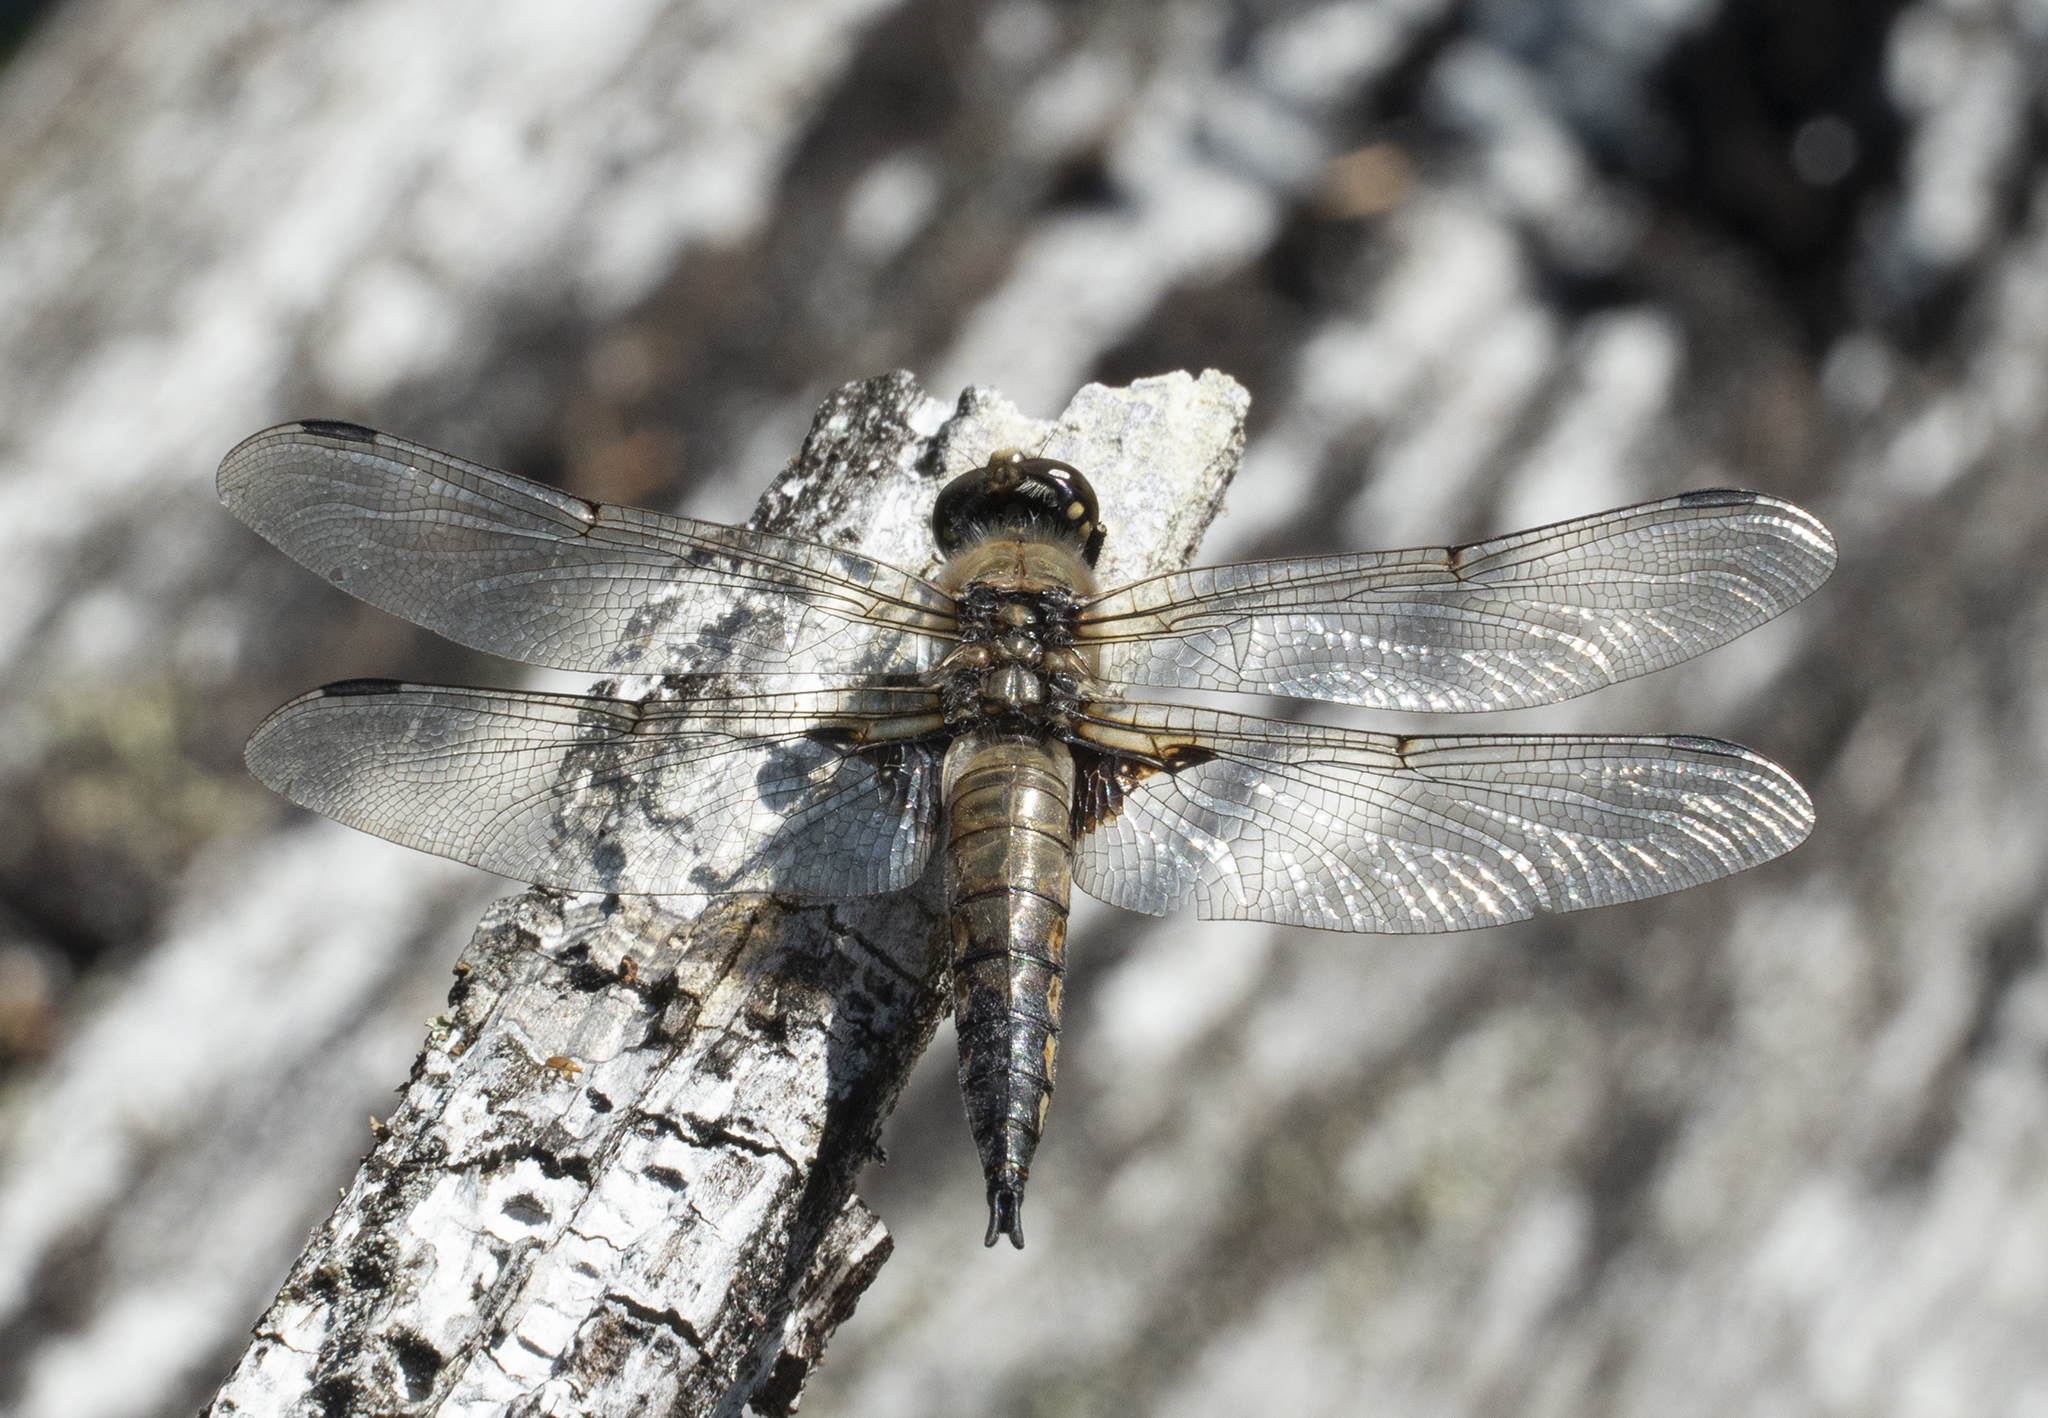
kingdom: Animalia
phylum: Arthropoda
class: Insecta
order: Odonata
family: Libellulidae
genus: Libellula
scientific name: Libellula quadrimaculata
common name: Four-spotted chaser
